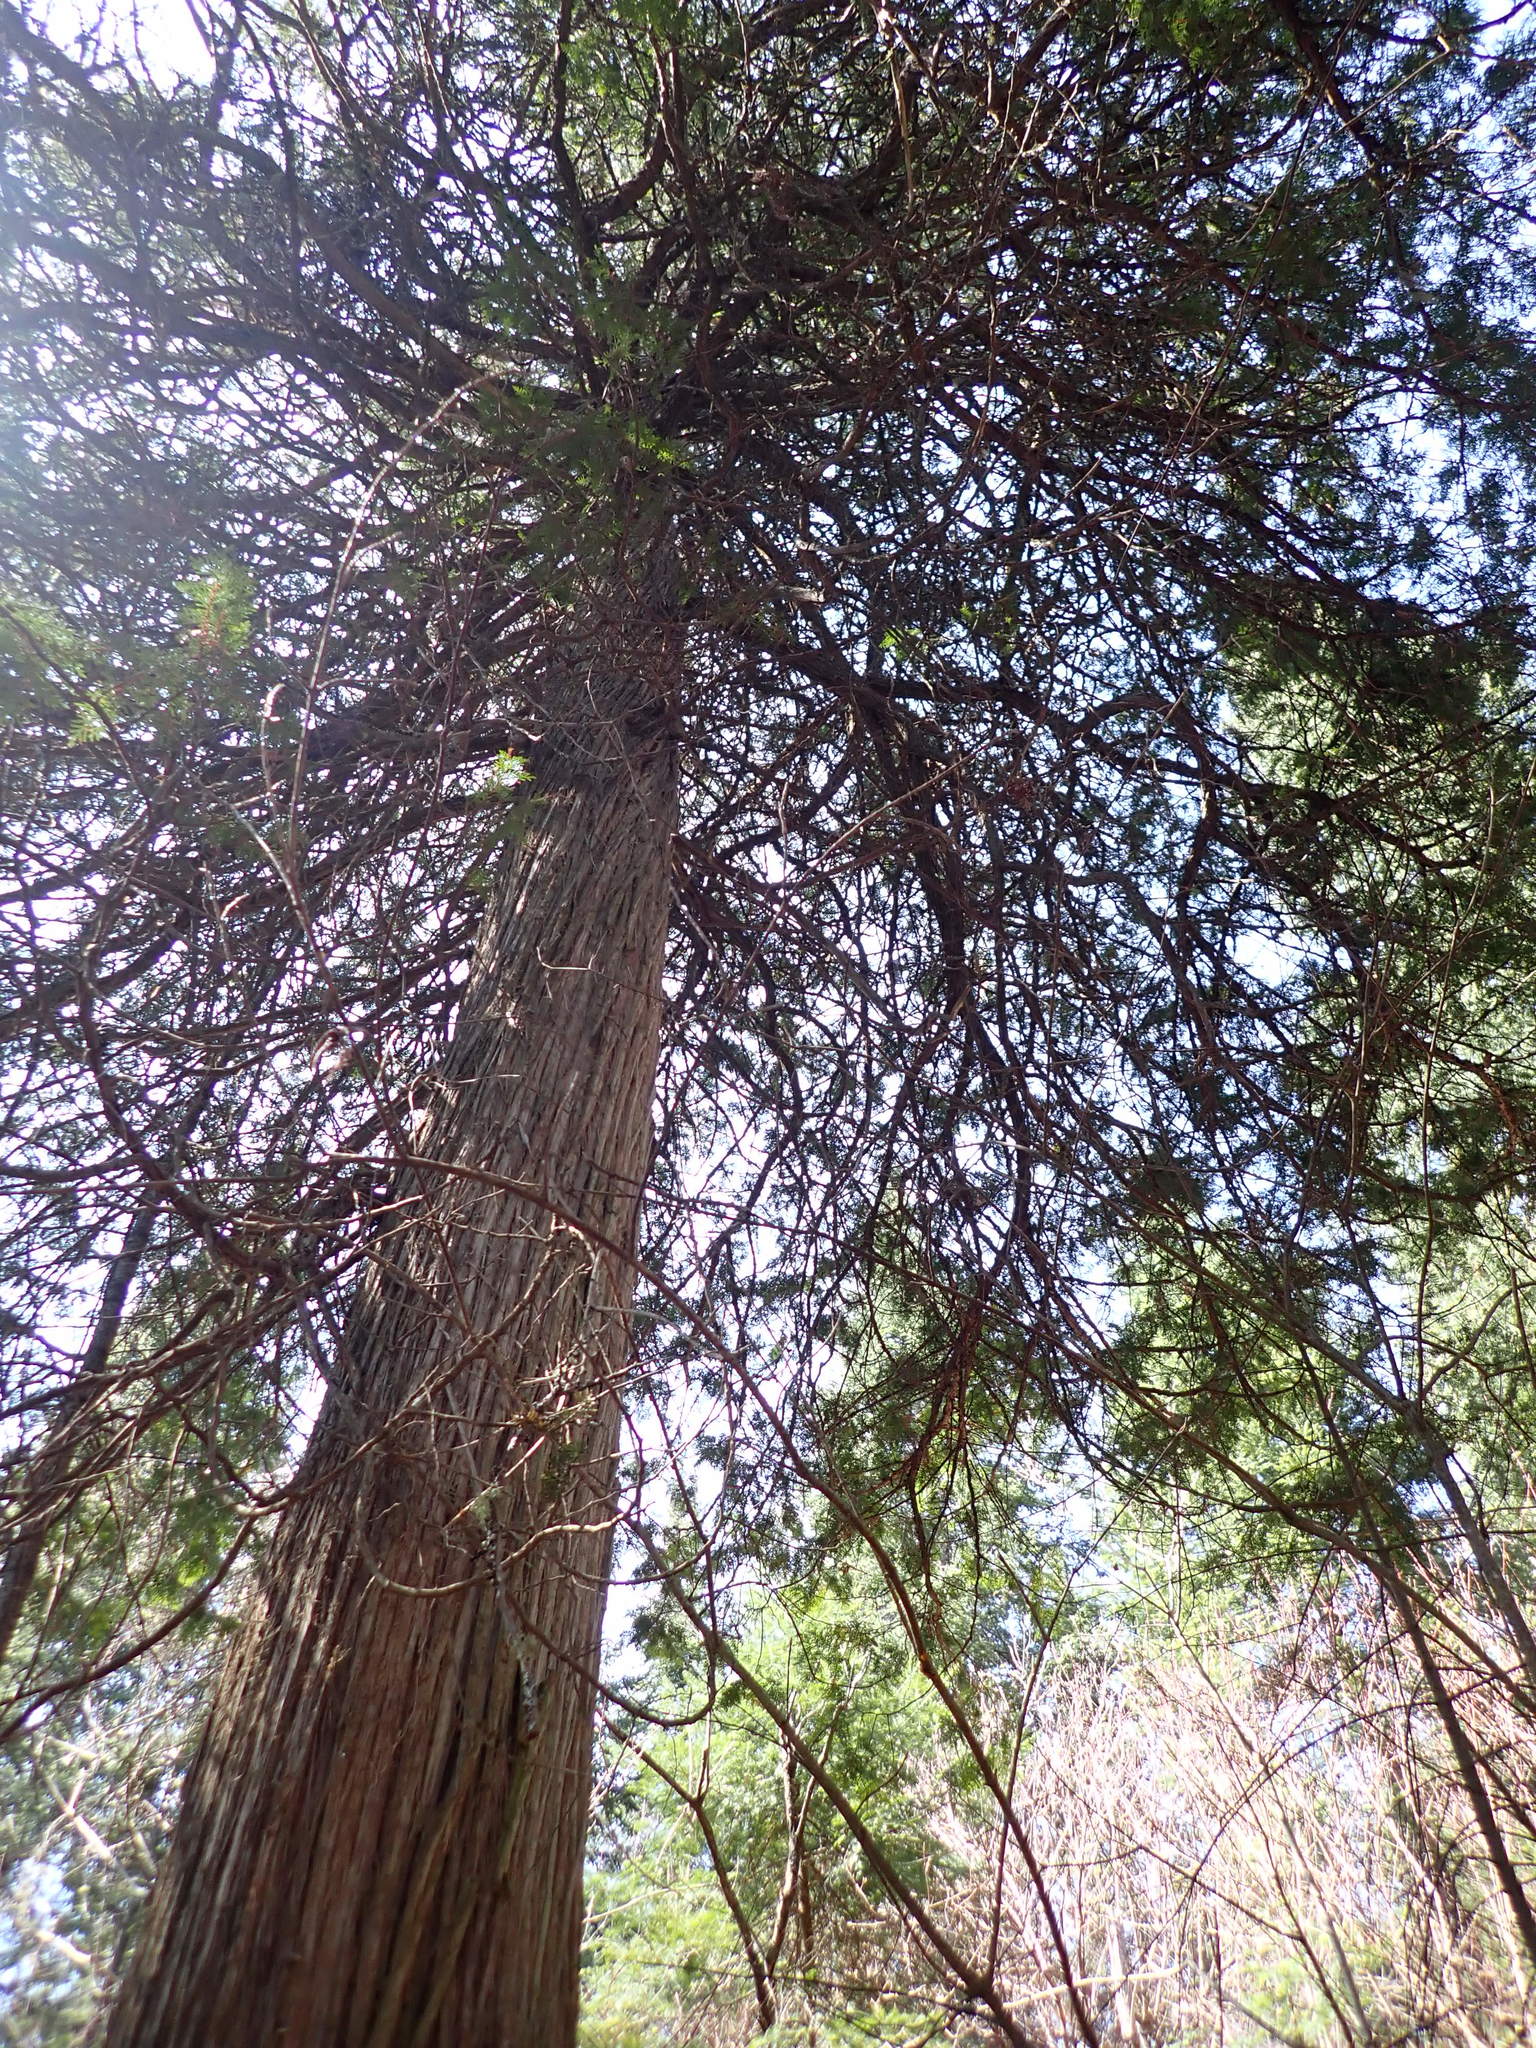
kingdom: Plantae
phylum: Tracheophyta
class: Pinopsida
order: Pinales
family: Cupressaceae
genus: Thuja
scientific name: Thuja occidentalis
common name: Northern white-cedar
